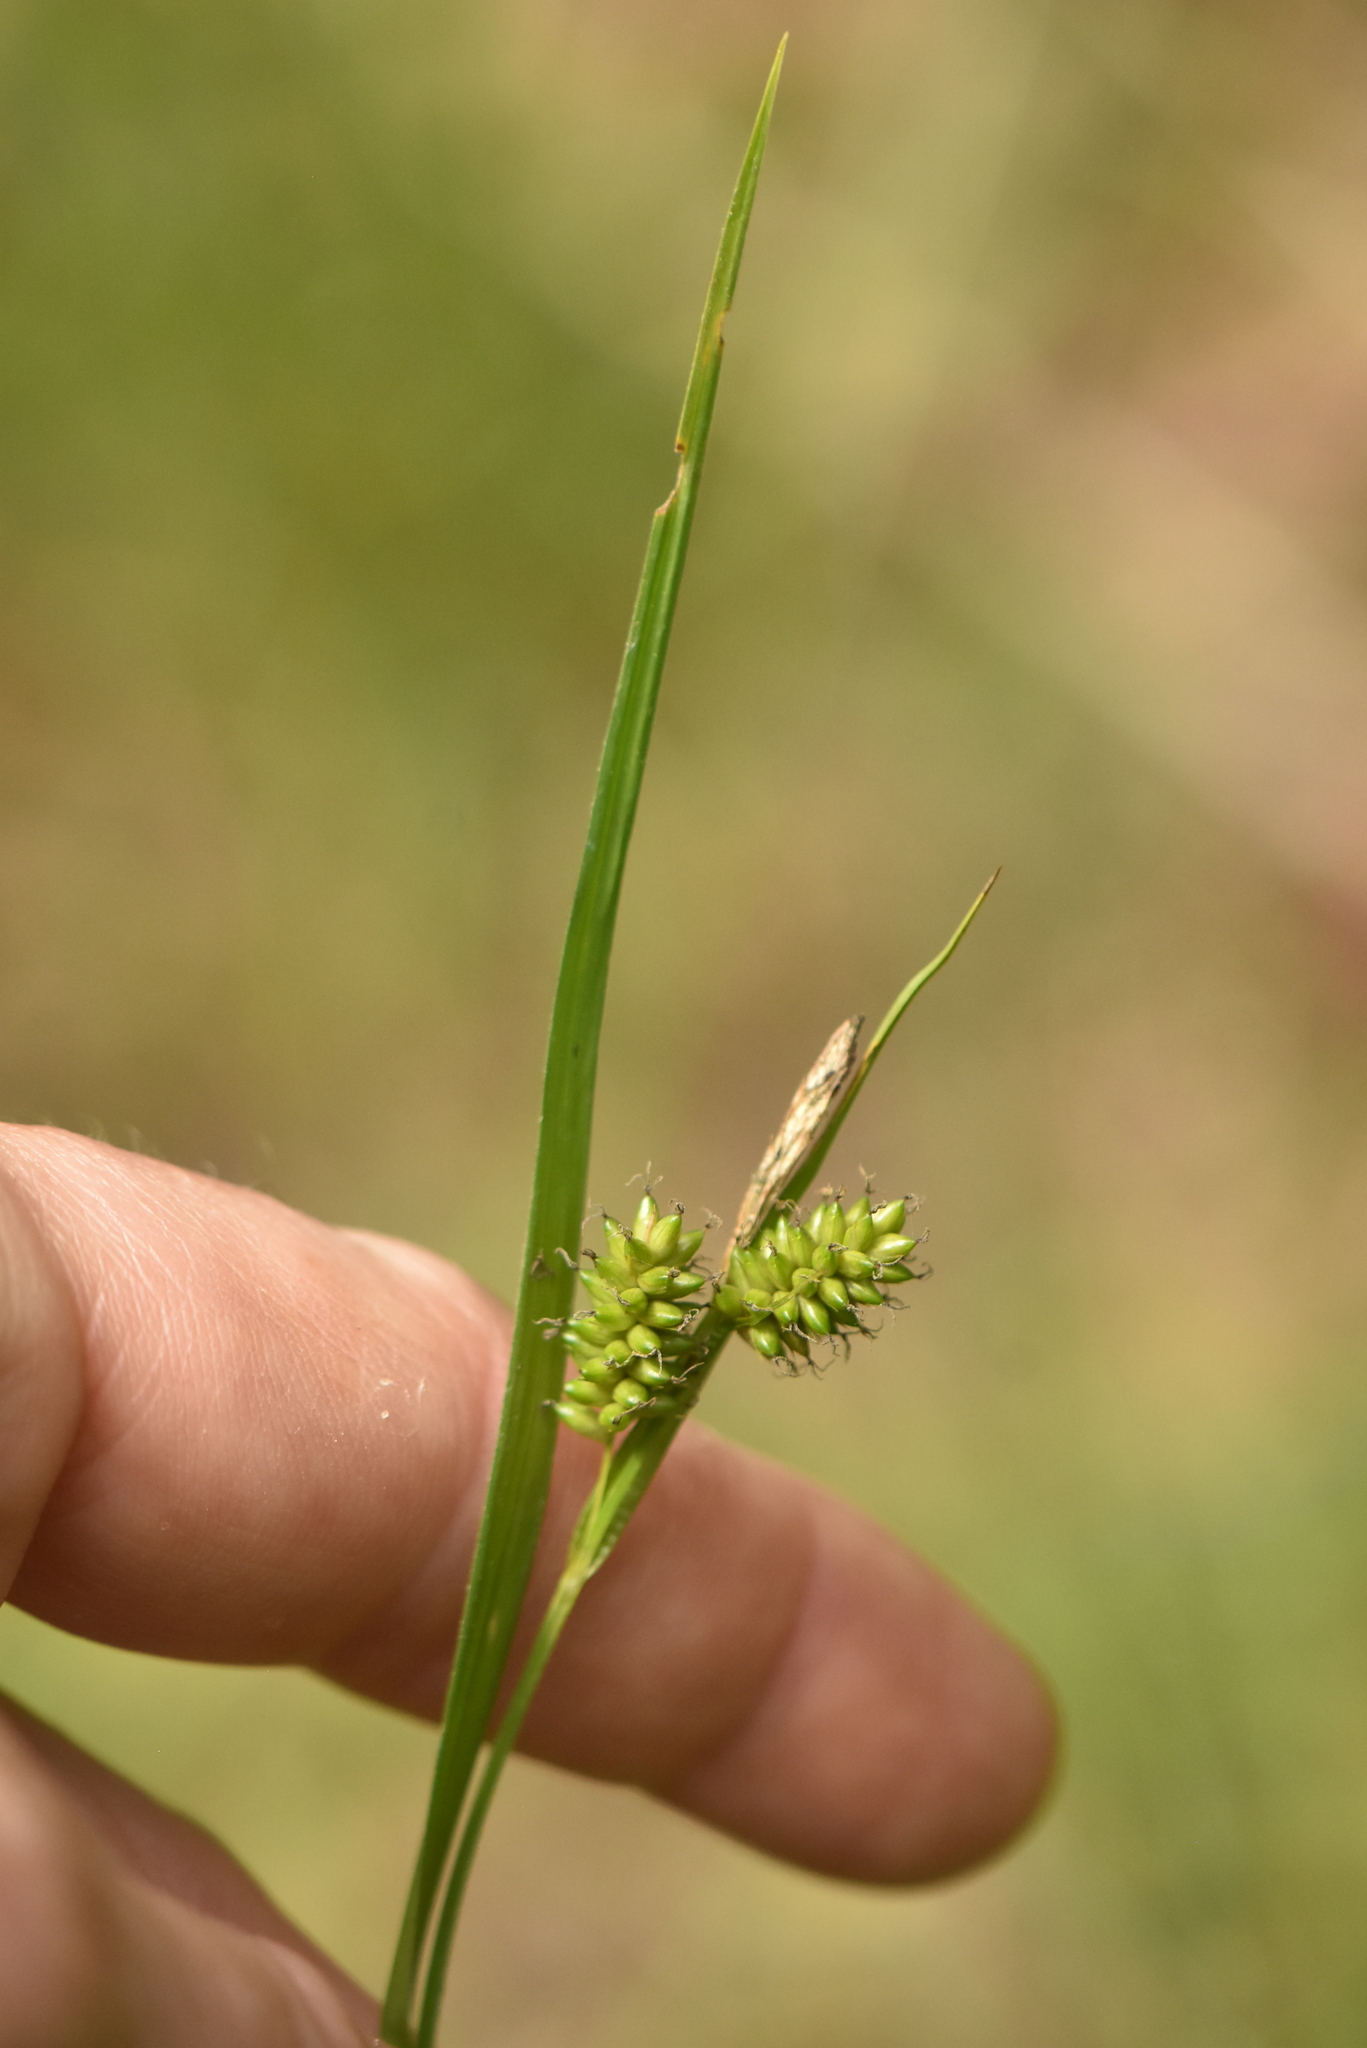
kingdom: Plantae
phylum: Tracheophyta
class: Liliopsida
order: Poales
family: Cyperaceae
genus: Carex
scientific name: Carex pallescens
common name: Pale sedge
